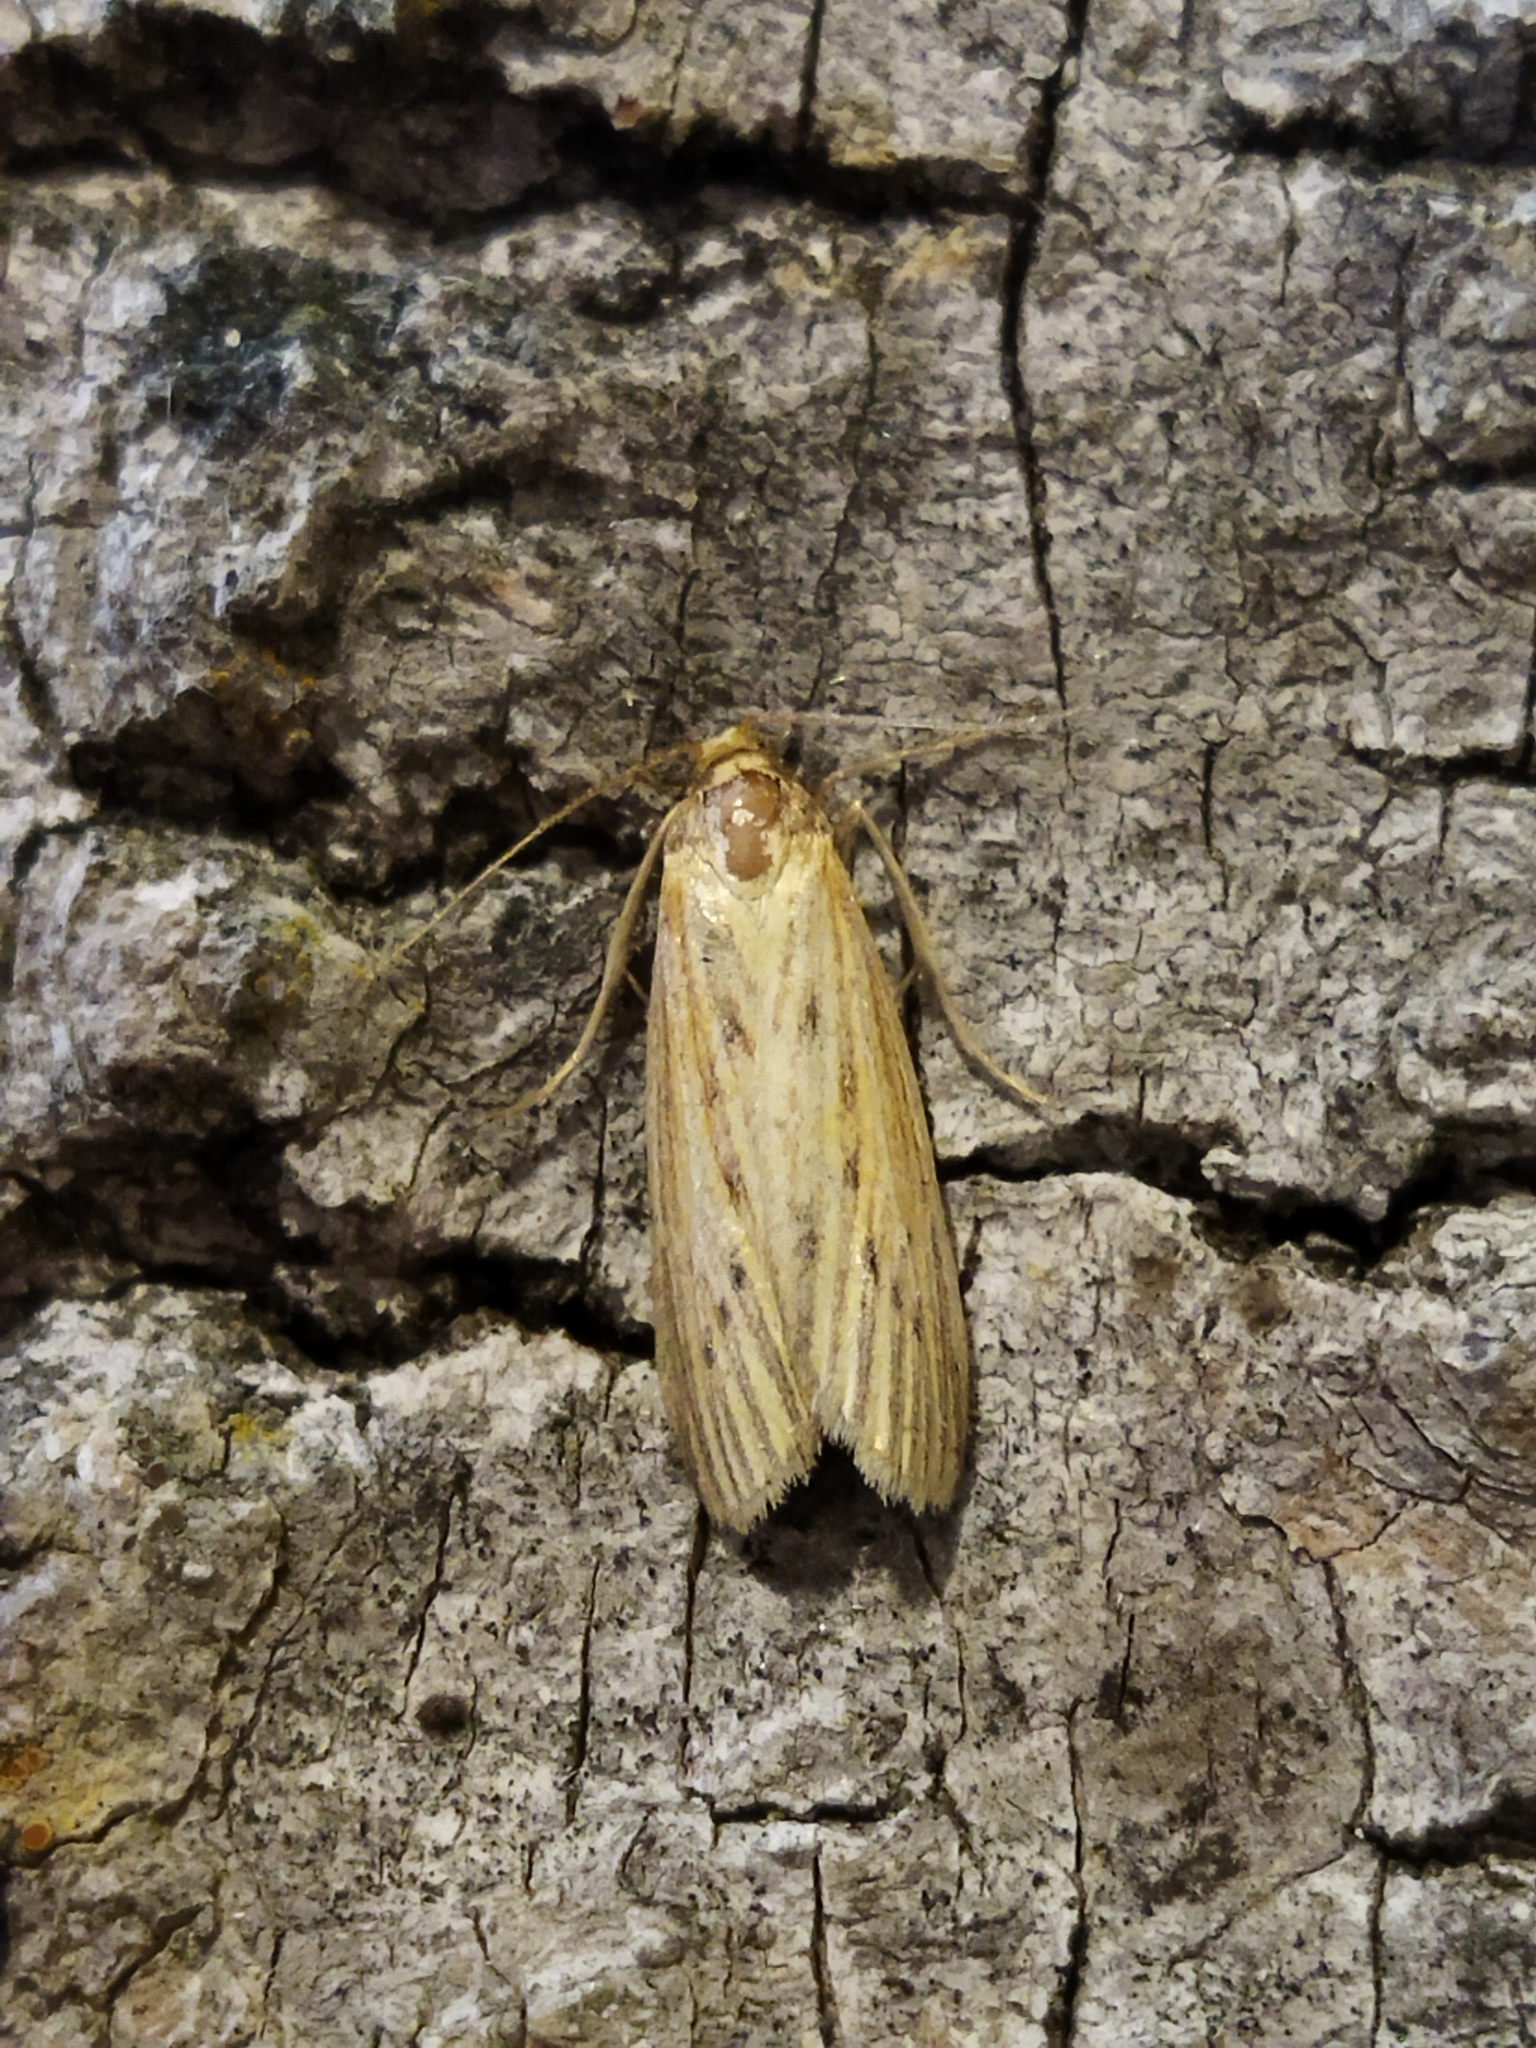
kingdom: Animalia
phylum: Arthropoda
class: Insecta
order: Lepidoptera
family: Pyralidae
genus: Ematheudes
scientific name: Ematheudes punctellus
